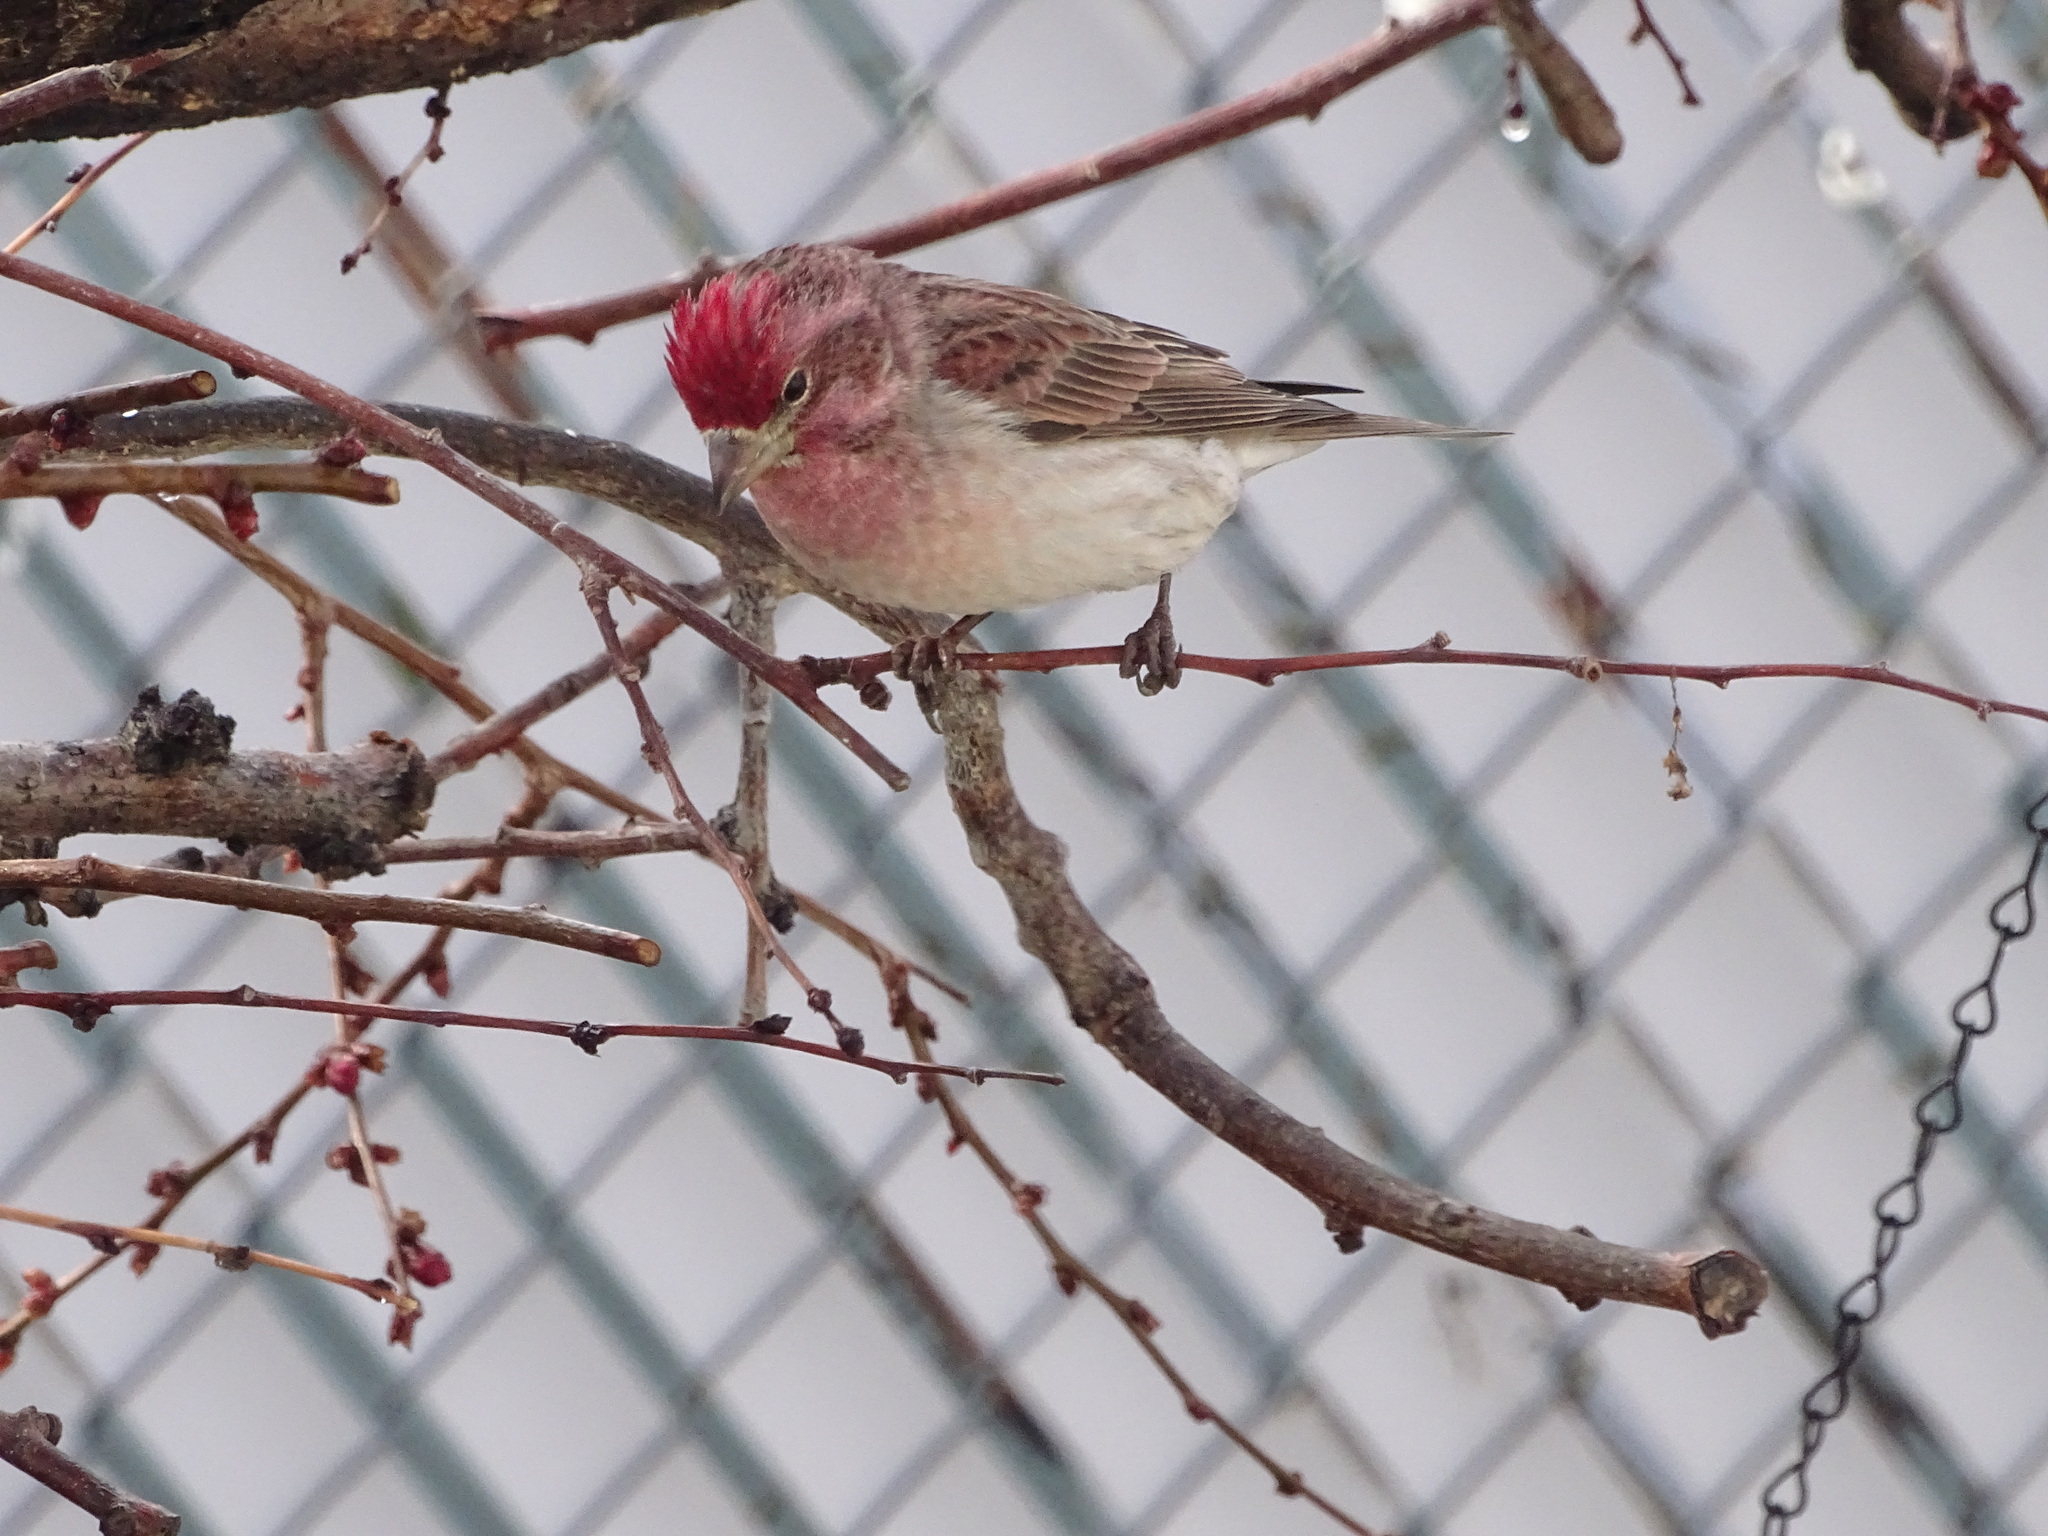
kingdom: Animalia
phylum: Chordata
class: Aves
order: Passeriformes
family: Fringillidae
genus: Haemorhous
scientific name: Haemorhous cassinii
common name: Cassin's finch
